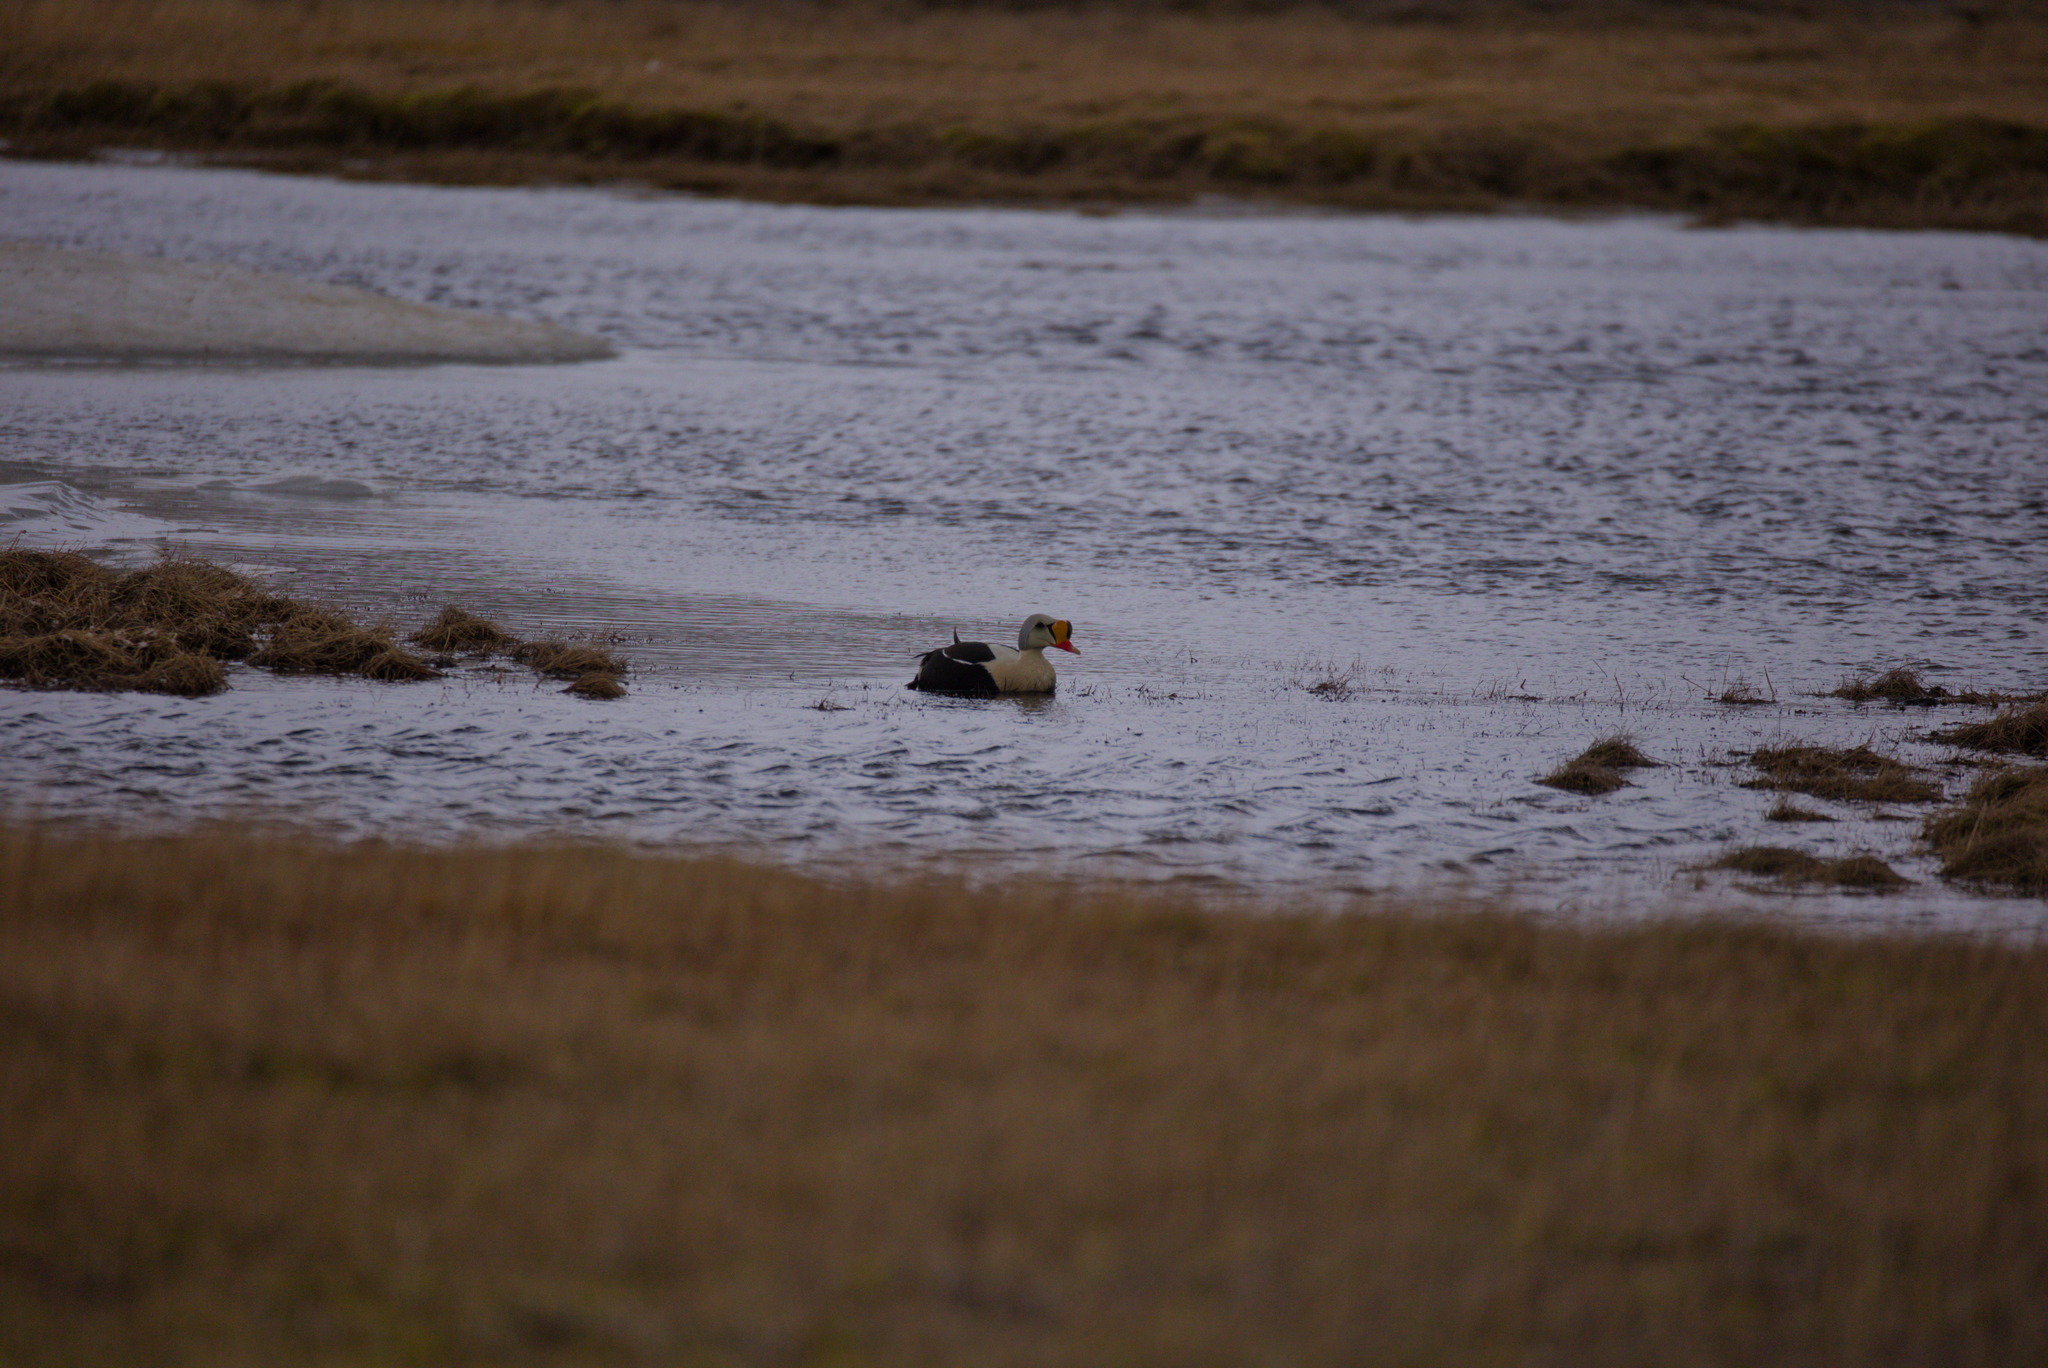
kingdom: Animalia
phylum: Chordata
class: Aves
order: Anseriformes
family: Anatidae
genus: Somateria
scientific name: Somateria spectabilis
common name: King eider
